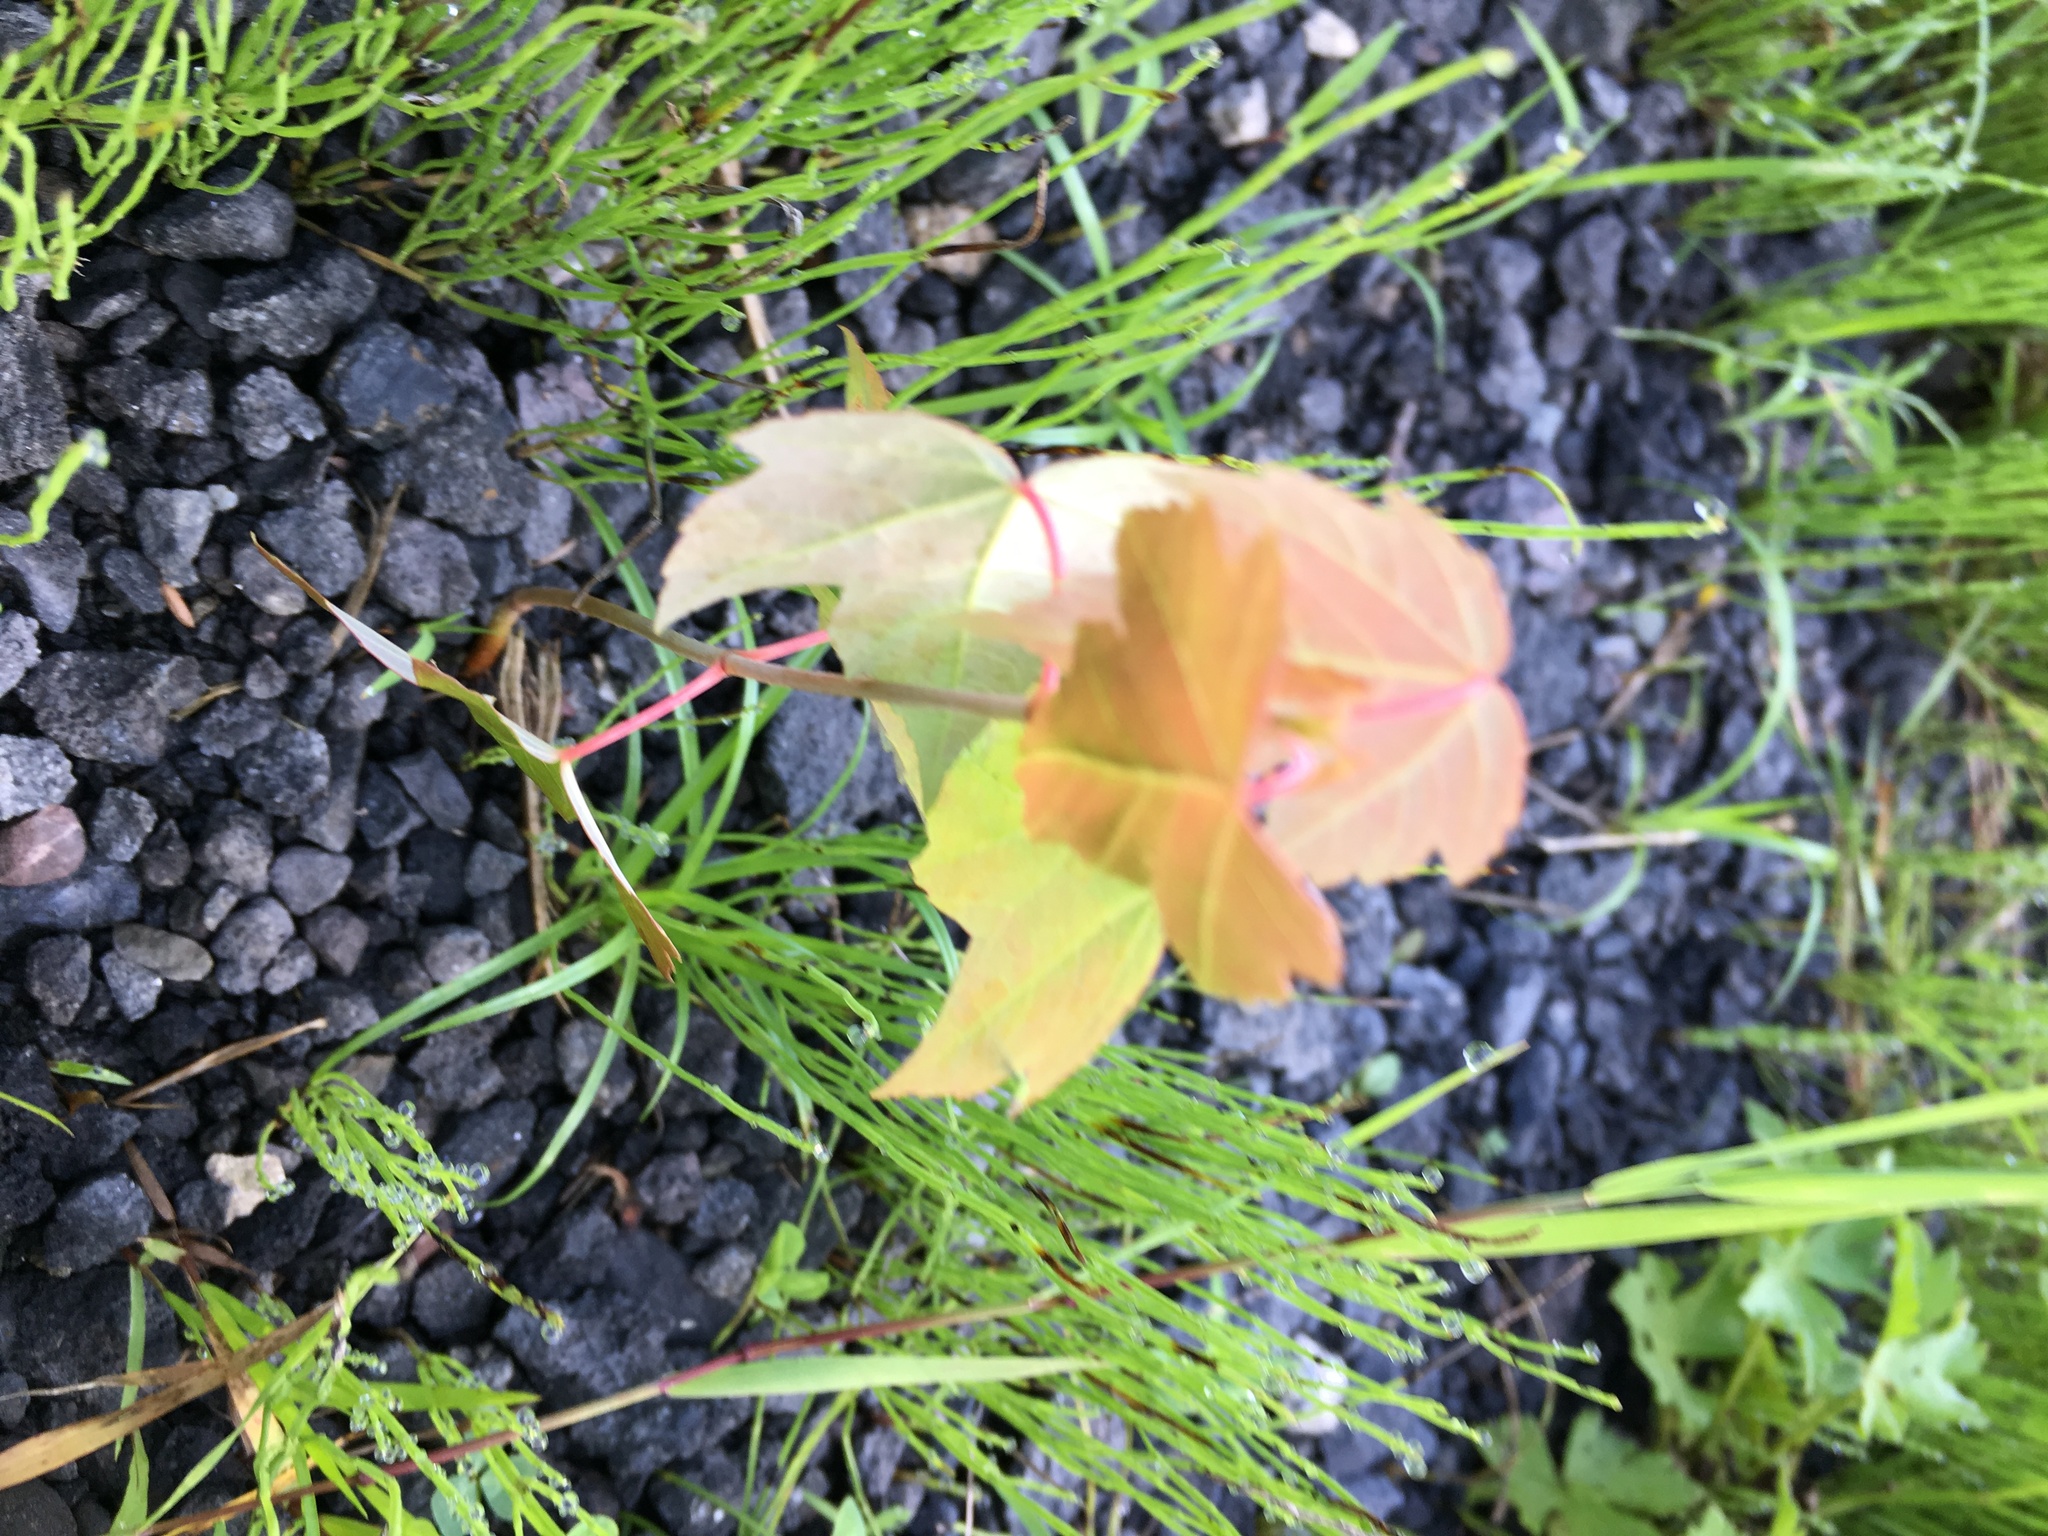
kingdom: Plantae
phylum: Tracheophyta
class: Magnoliopsida
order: Sapindales
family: Sapindaceae
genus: Acer
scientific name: Acer rubrum
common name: Red maple
